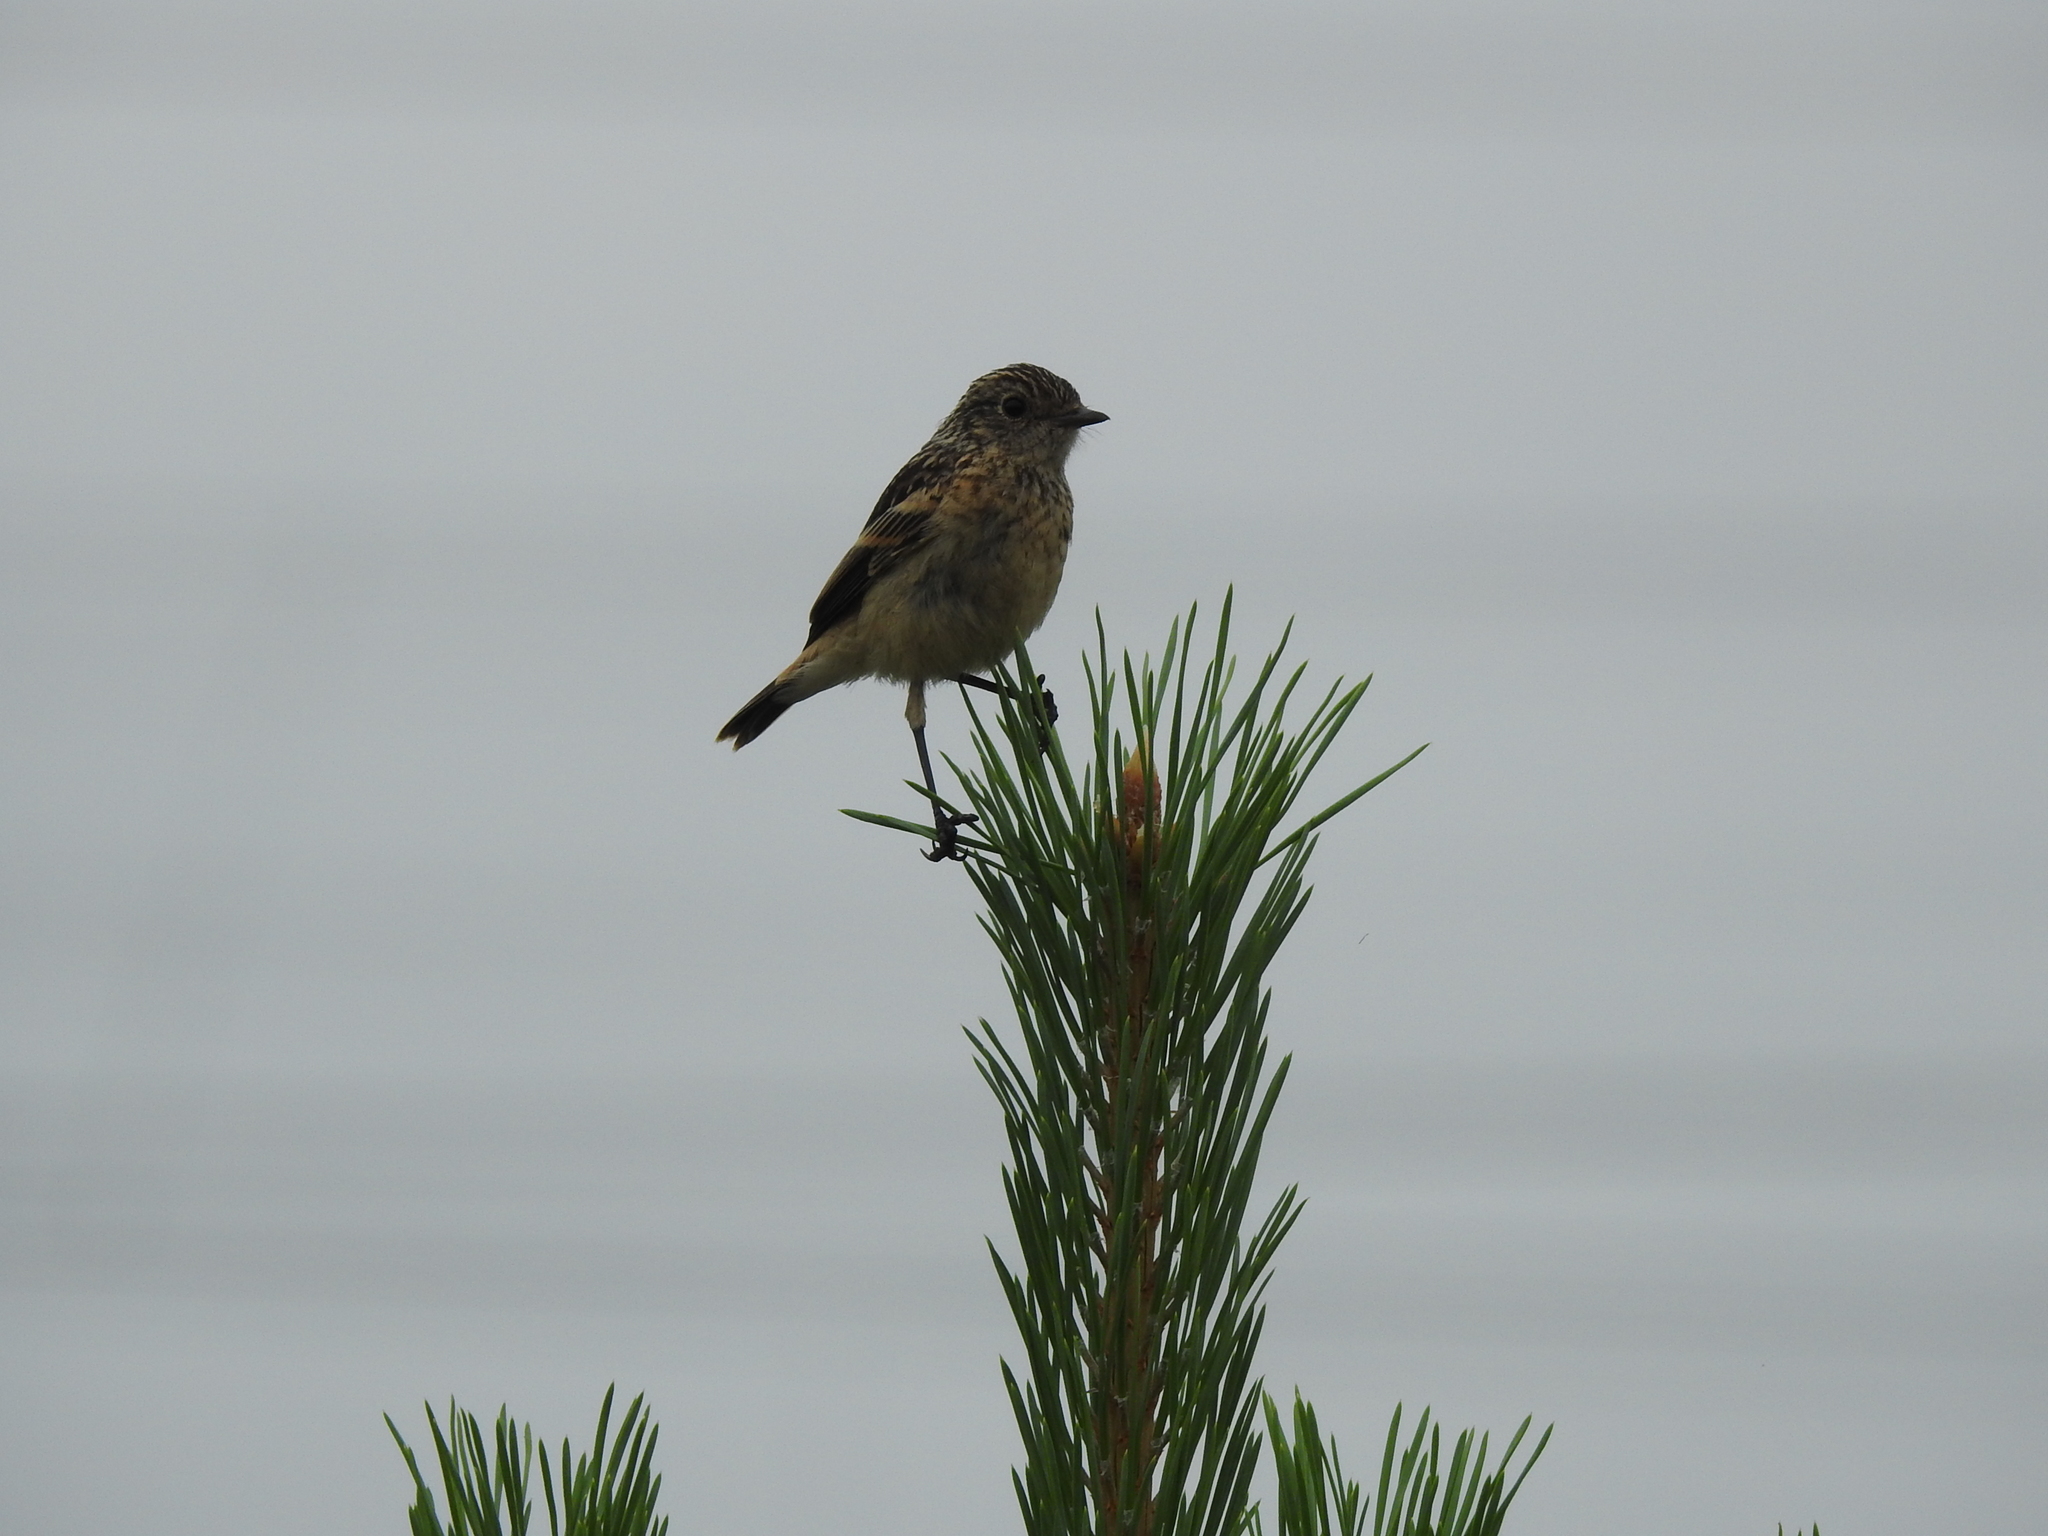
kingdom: Animalia
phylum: Chordata
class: Aves
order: Passeriformes
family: Muscicapidae
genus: Saxicola
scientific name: Saxicola maurus
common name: Siberian stonechat
